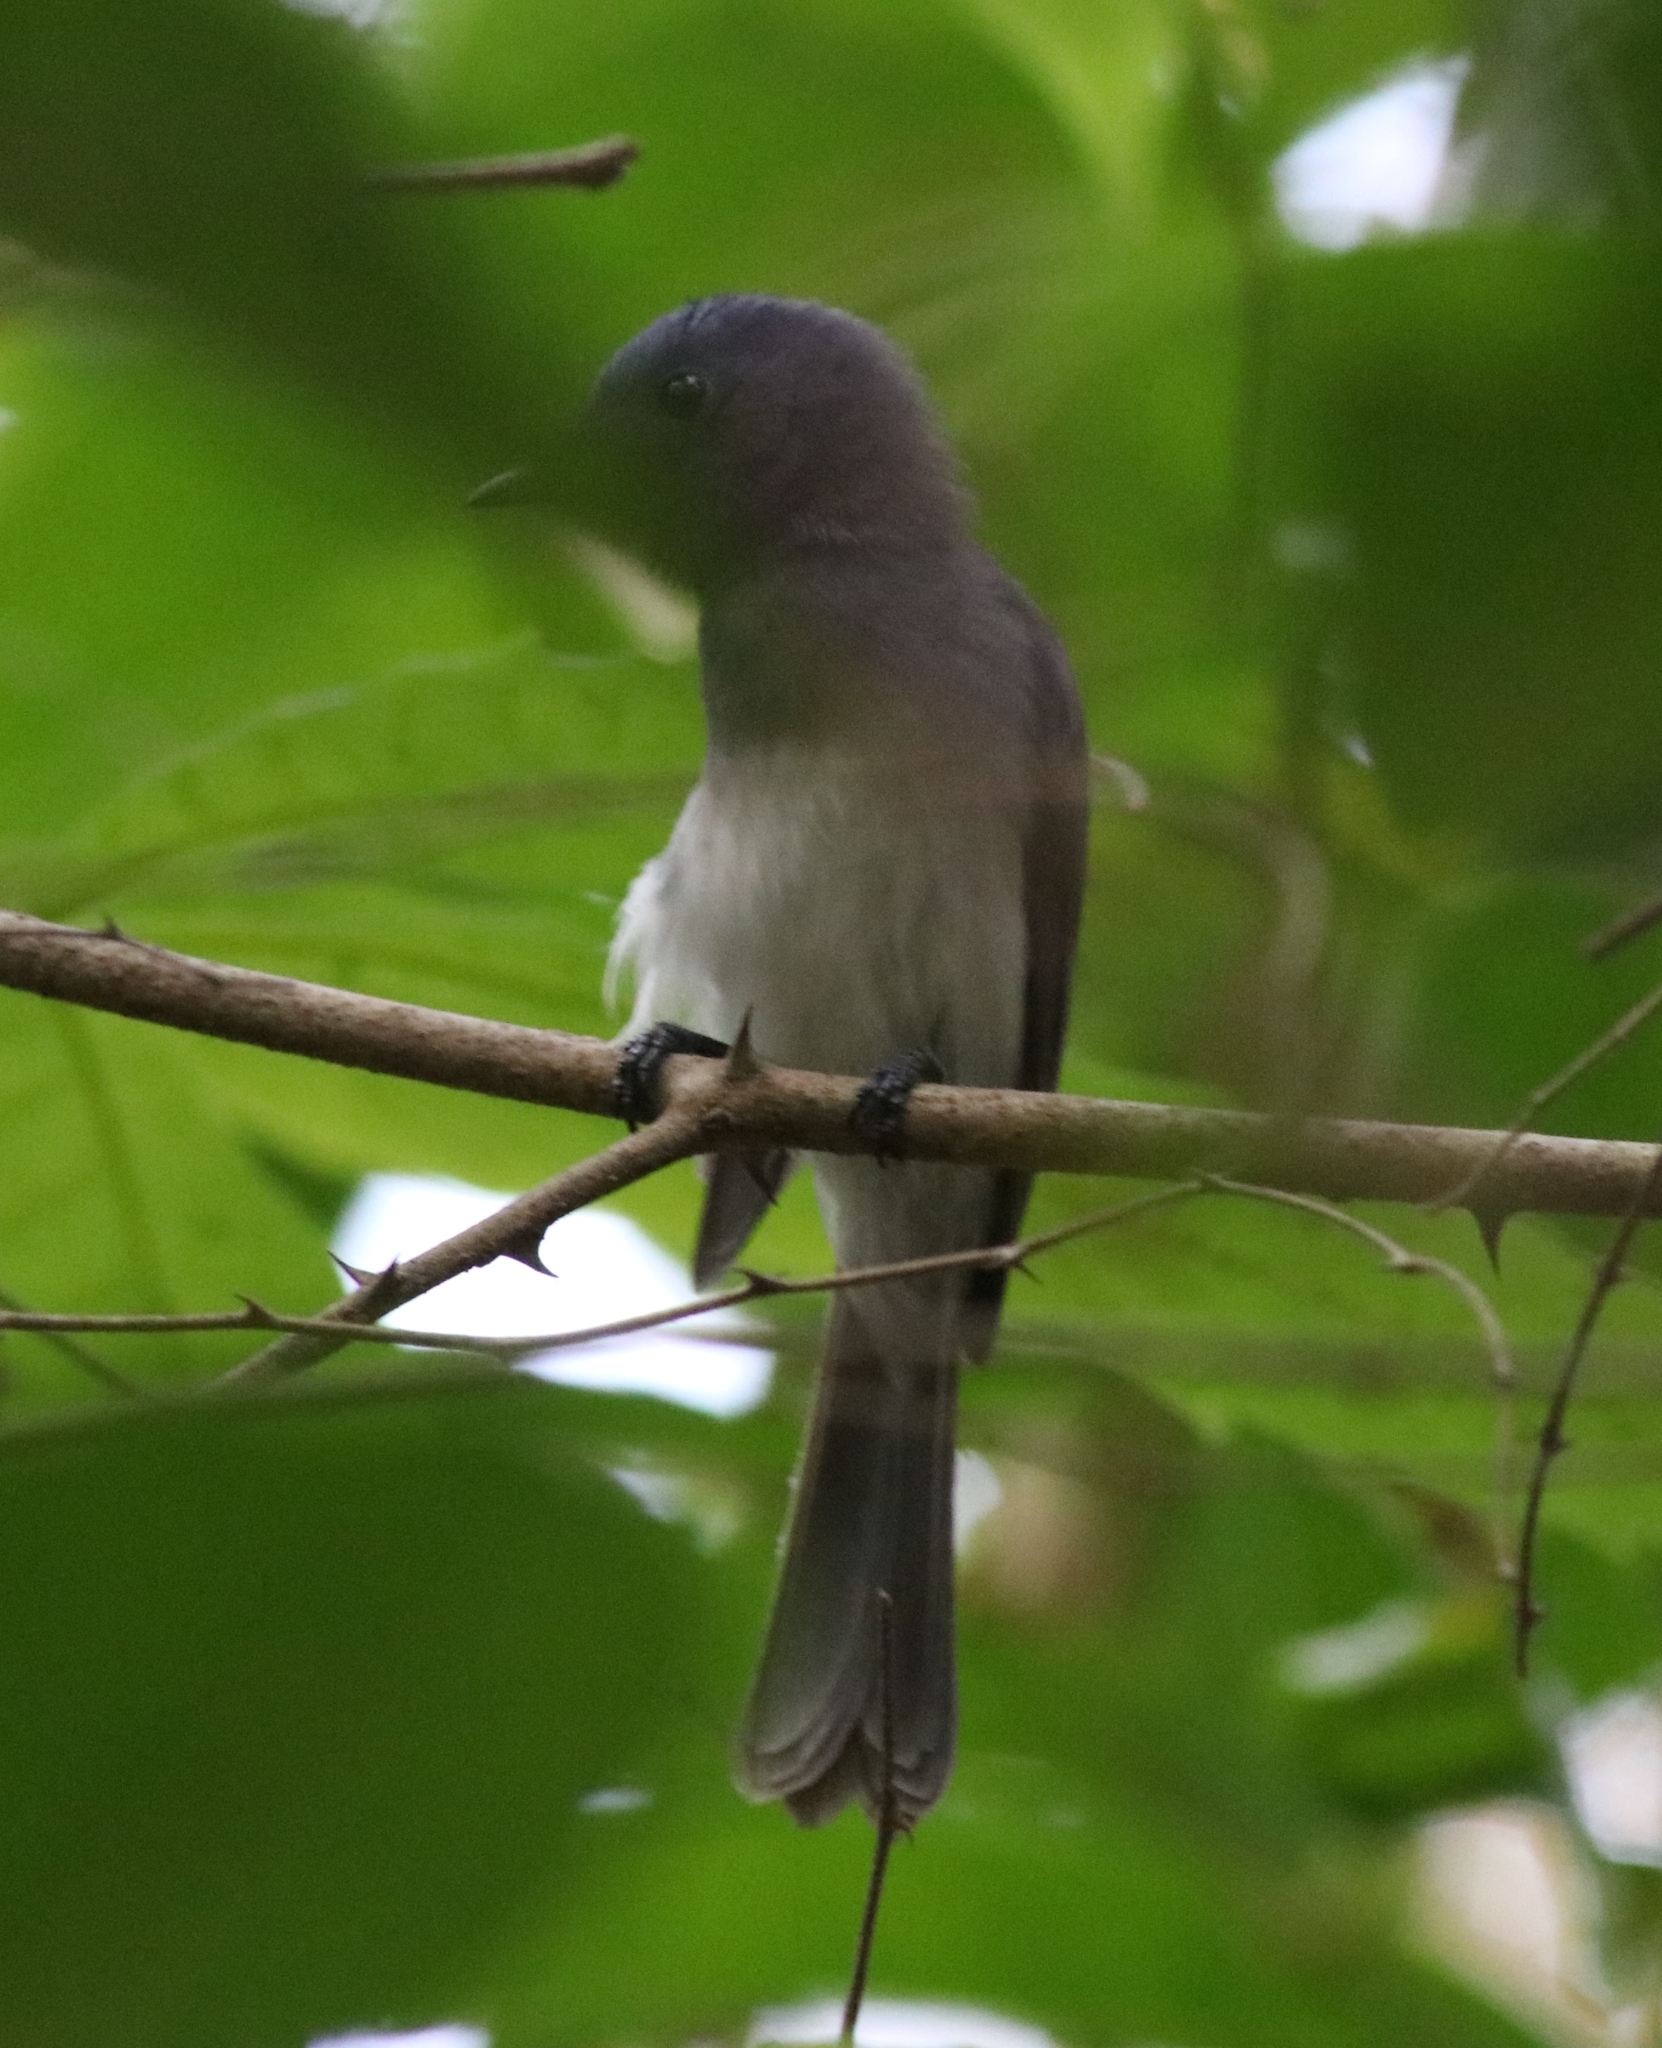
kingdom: Animalia
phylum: Chordata
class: Aves
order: Passeriformes
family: Monarchidae
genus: Hypothymis
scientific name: Hypothymis azurea
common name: Black-naped monarch
